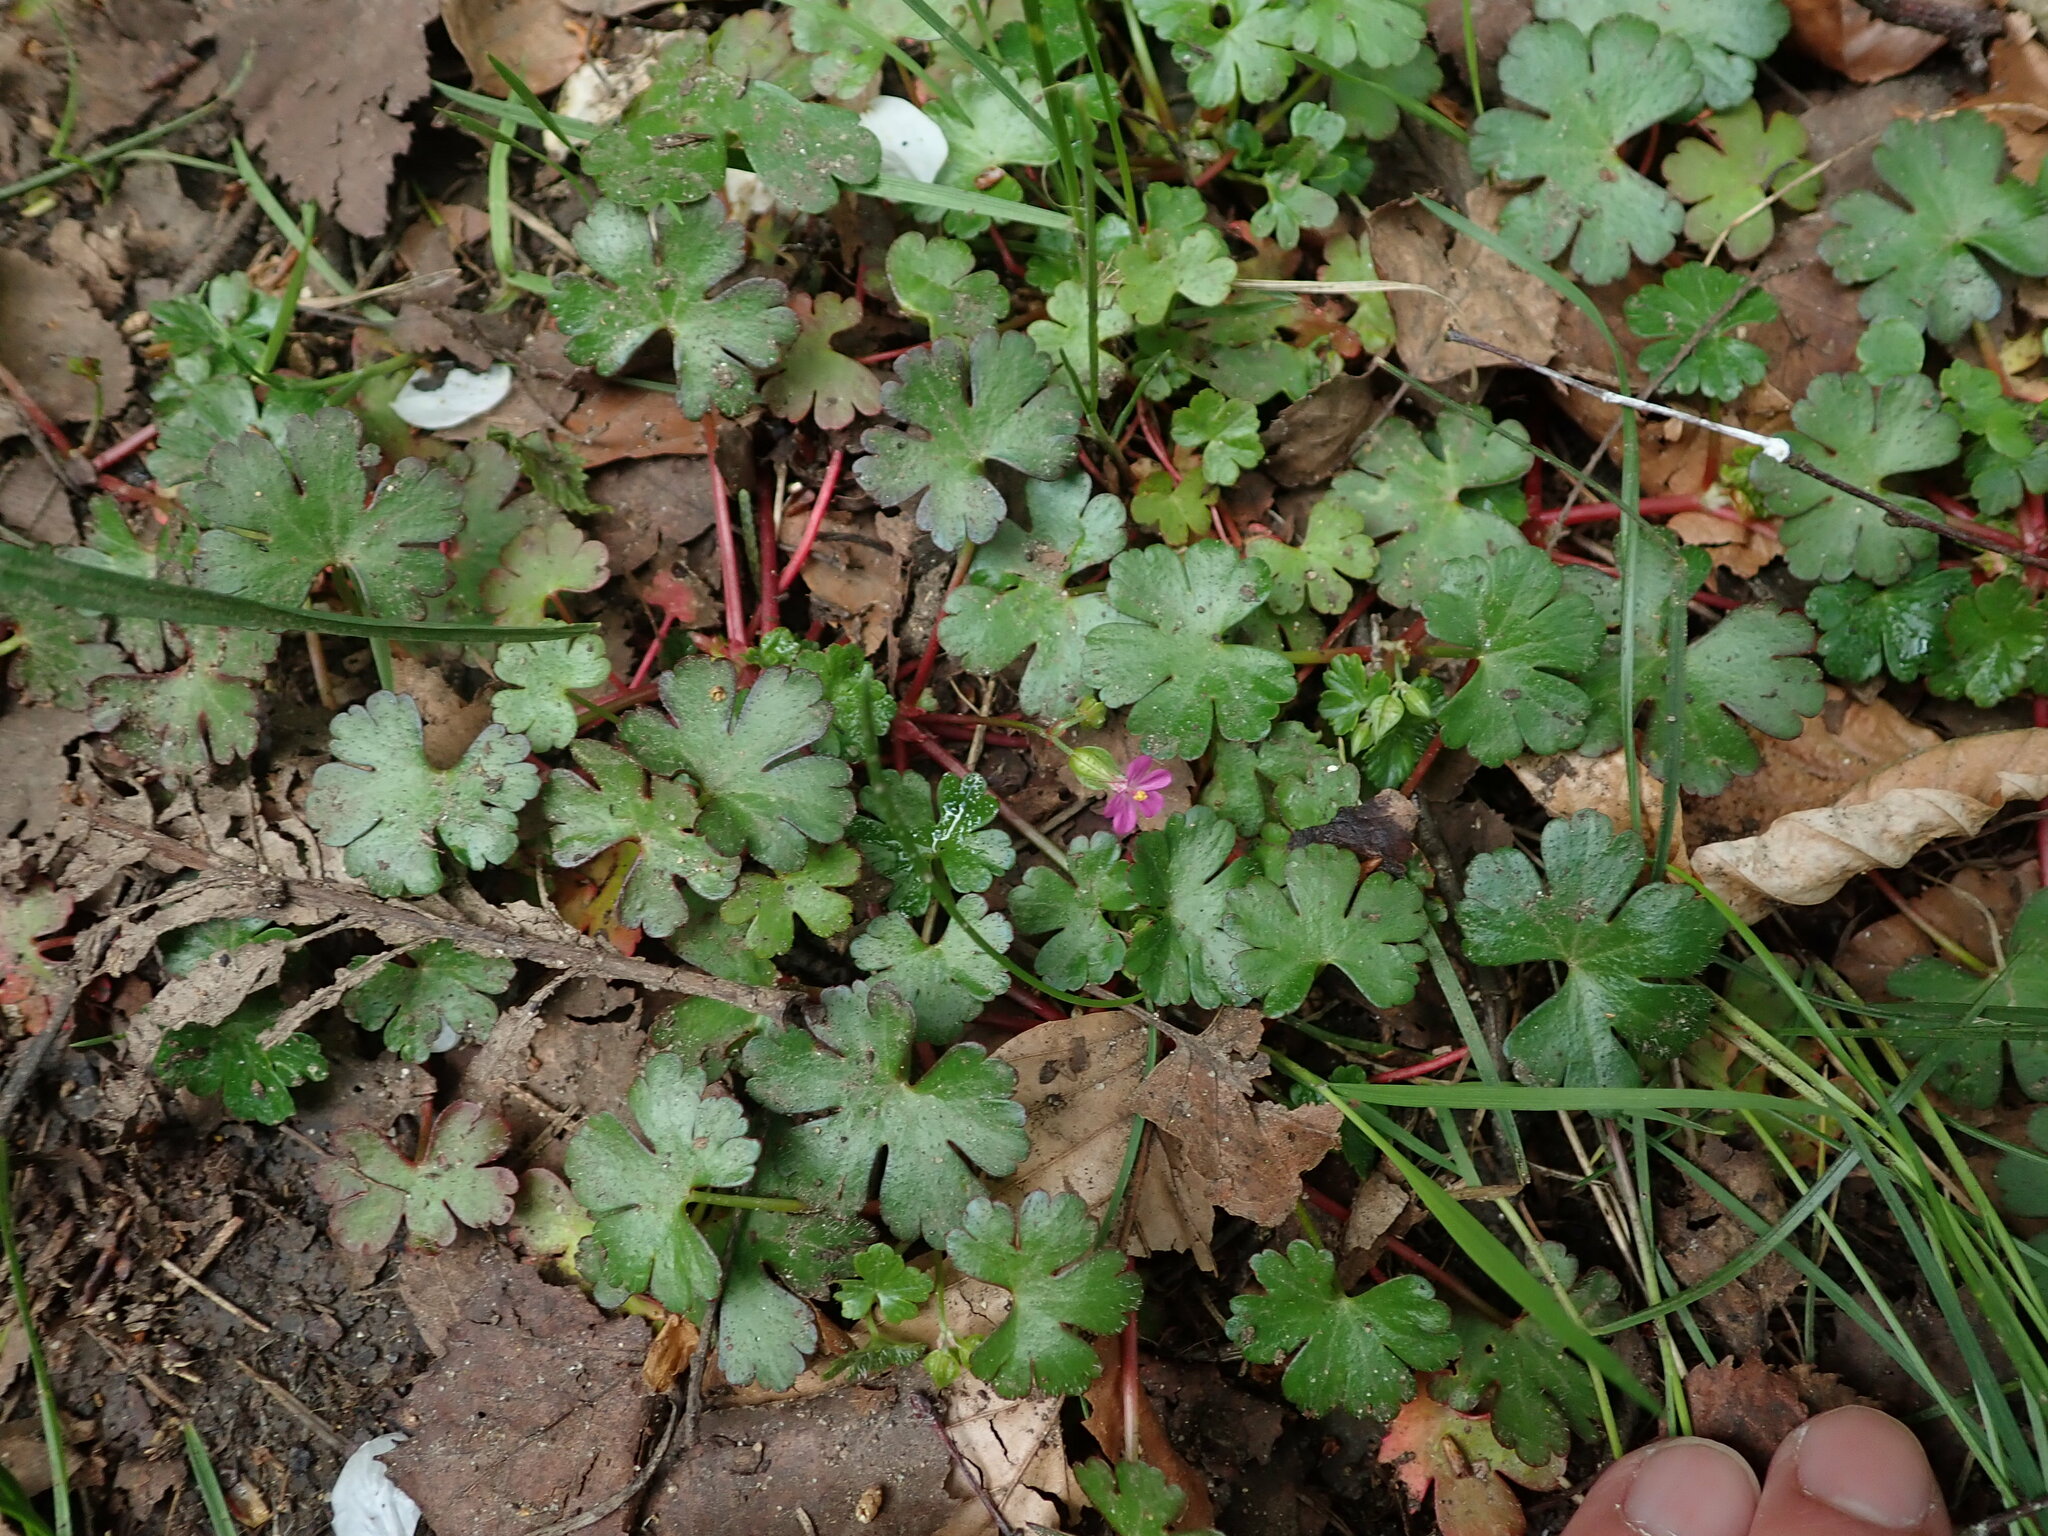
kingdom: Plantae
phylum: Tracheophyta
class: Magnoliopsida
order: Geraniales
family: Geraniaceae
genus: Geranium
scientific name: Geranium lucidum
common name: Shining crane's-bill
